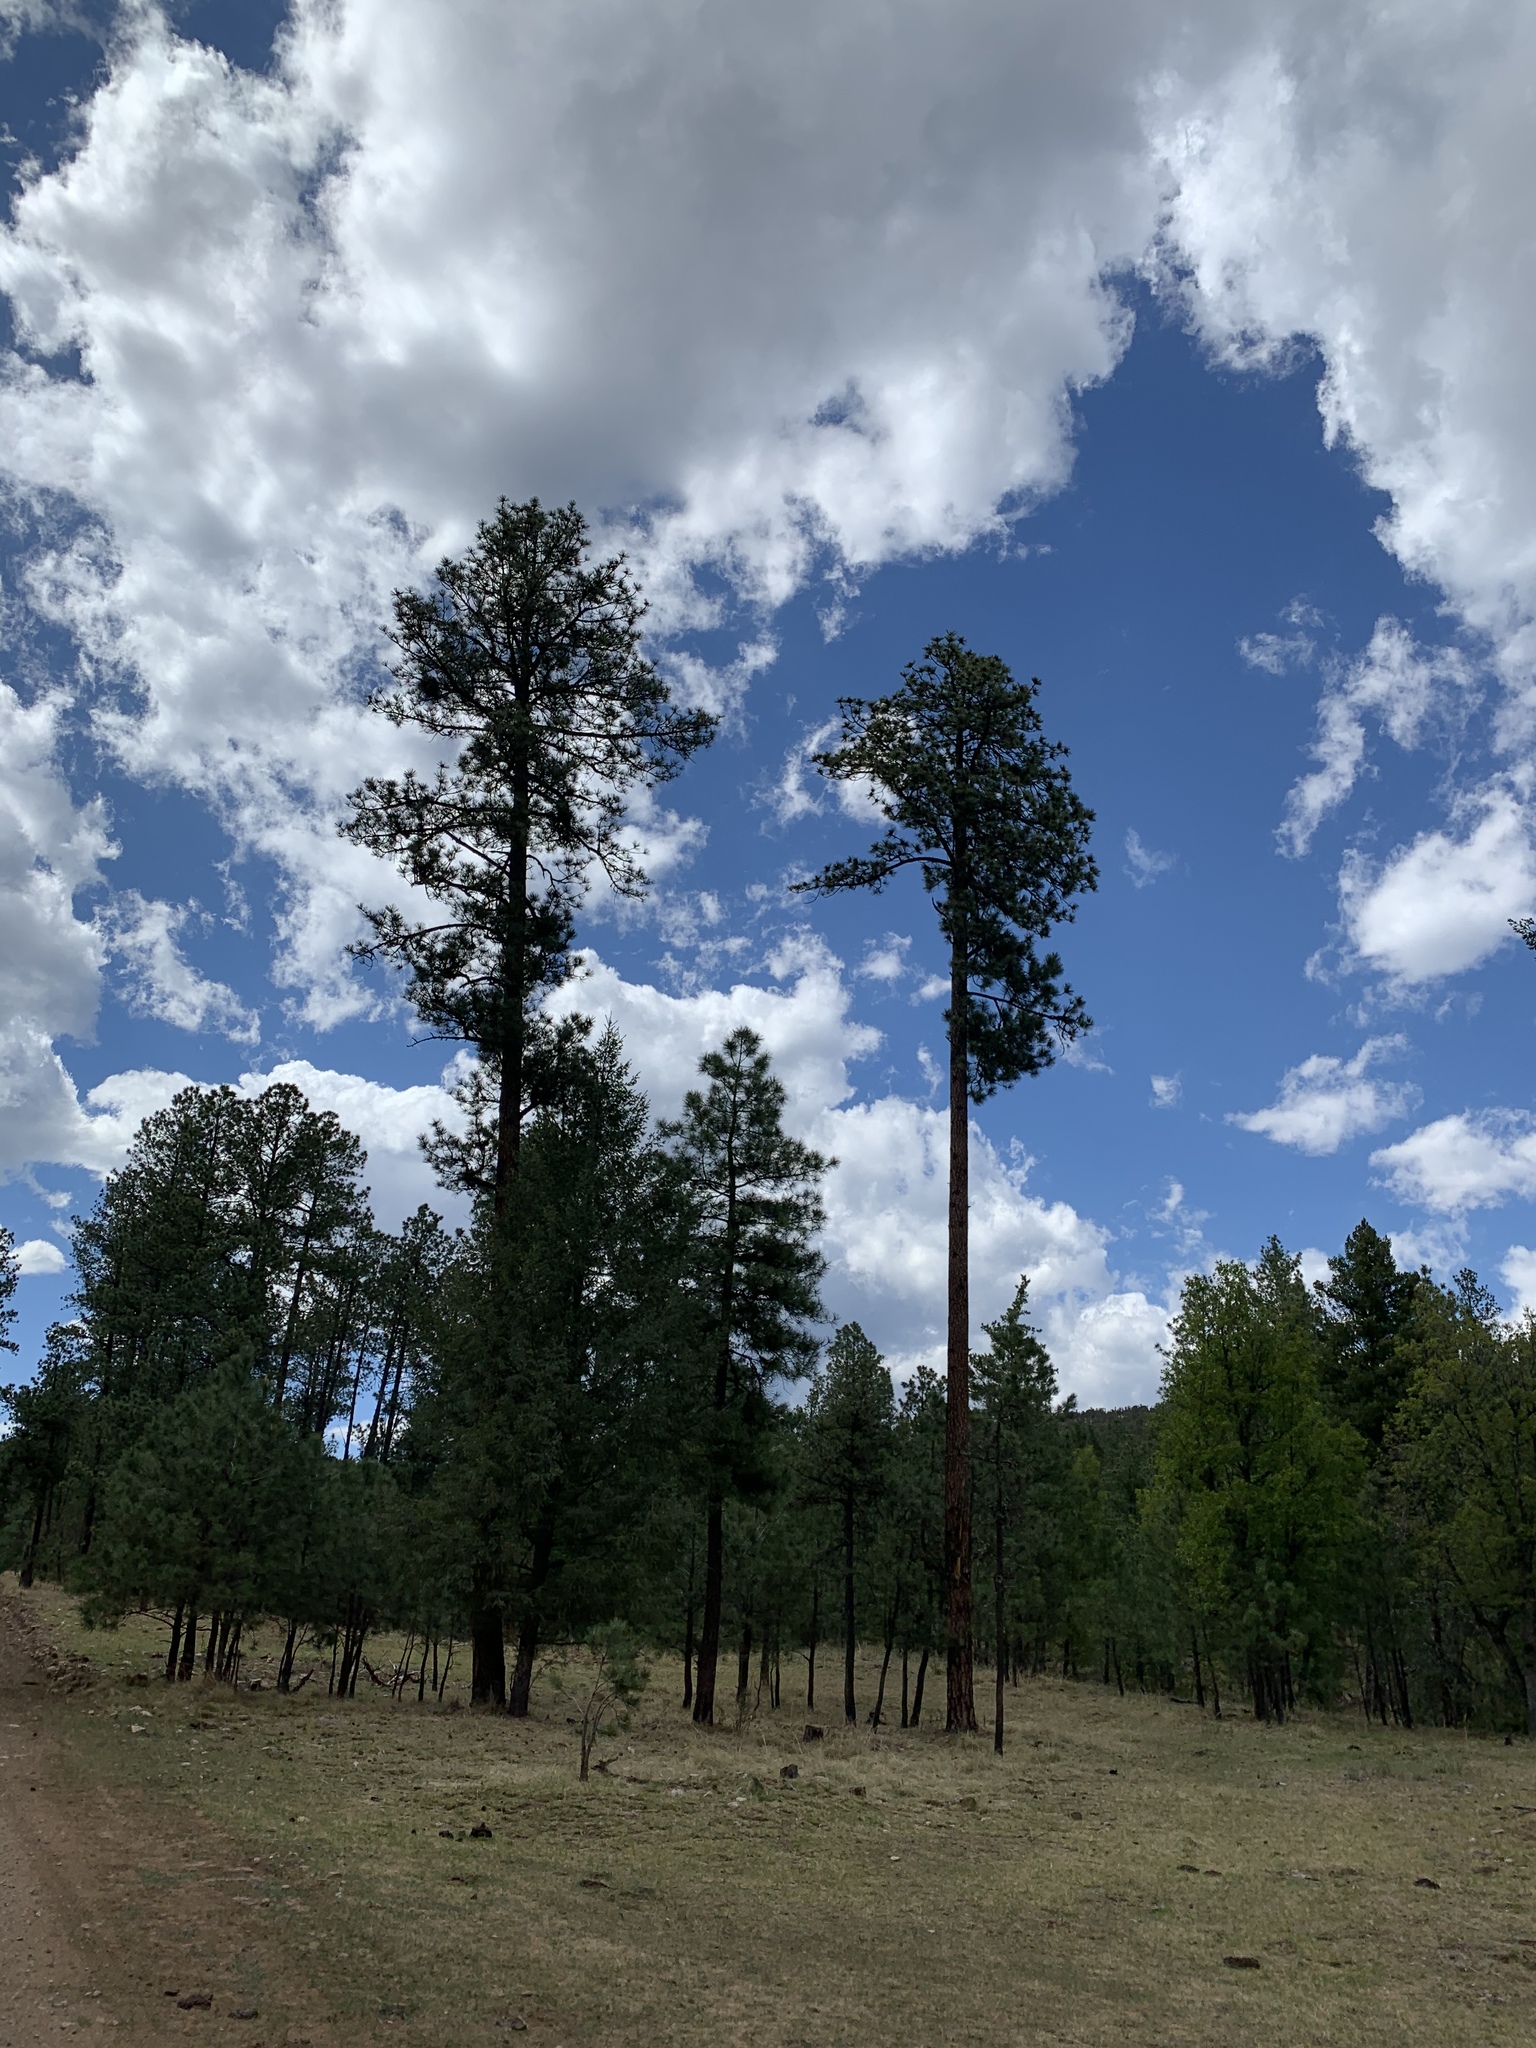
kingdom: Plantae
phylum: Tracheophyta
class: Pinopsida
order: Pinales
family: Pinaceae
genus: Pinus
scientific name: Pinus ponderosa
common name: Western yellow-pine
